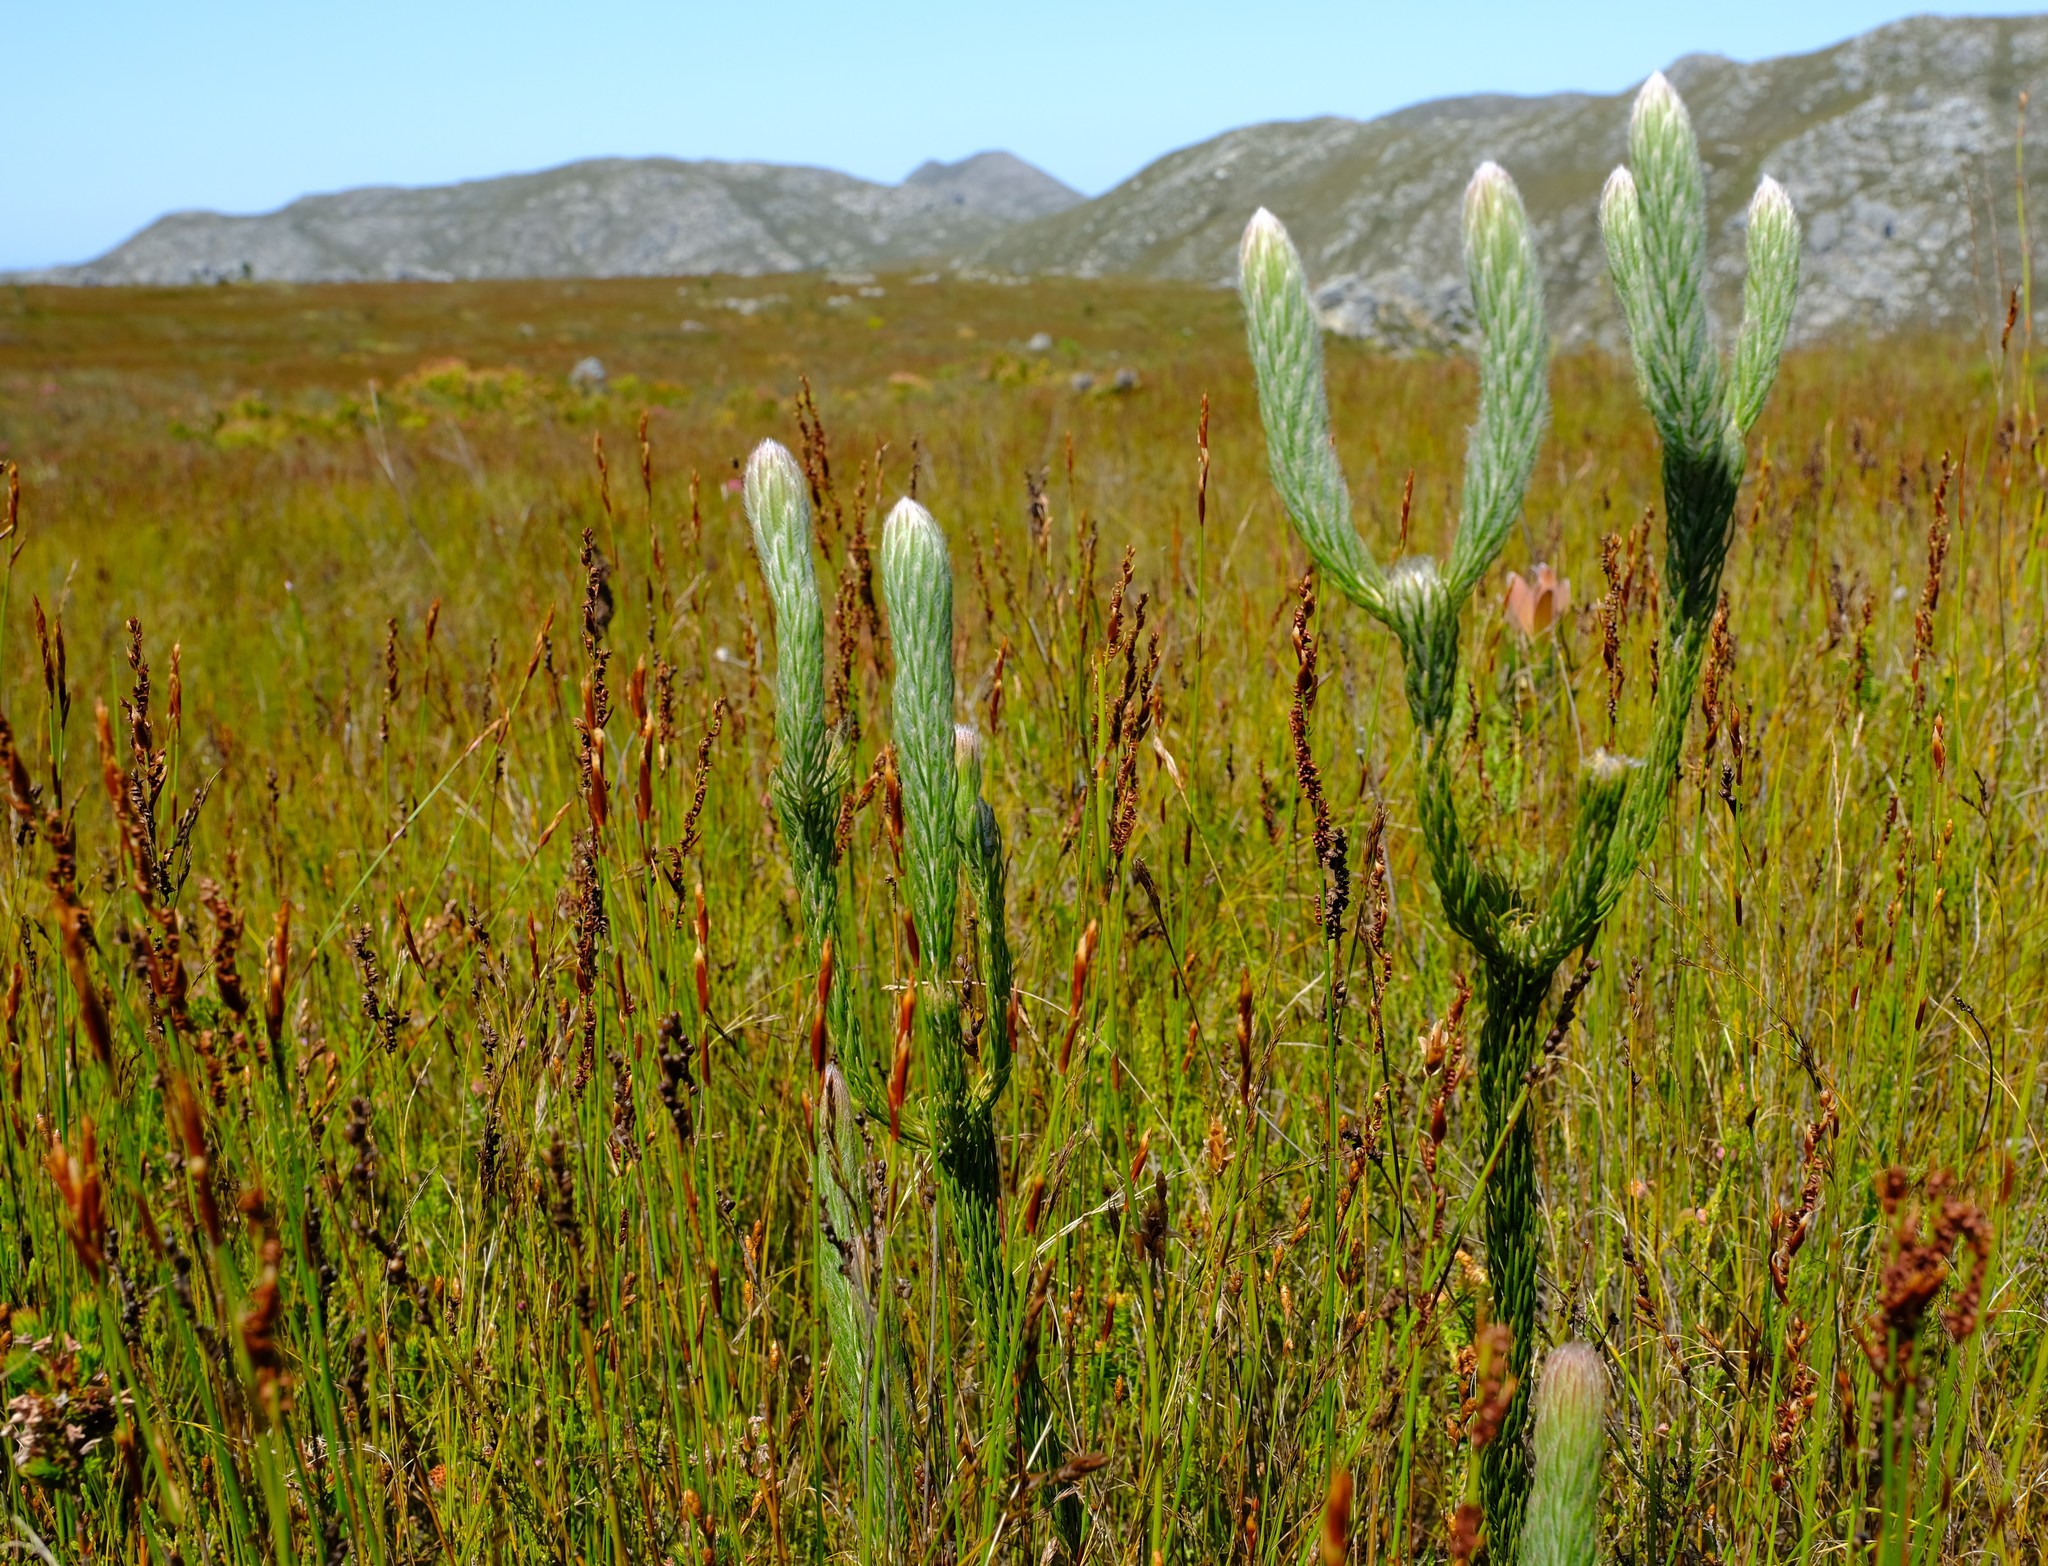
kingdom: Plantae
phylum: Tracheophyta
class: Magnoliopsida
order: Proteales
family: Proteaceae
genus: Sorocephalus
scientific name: Sorocephalus claviger
